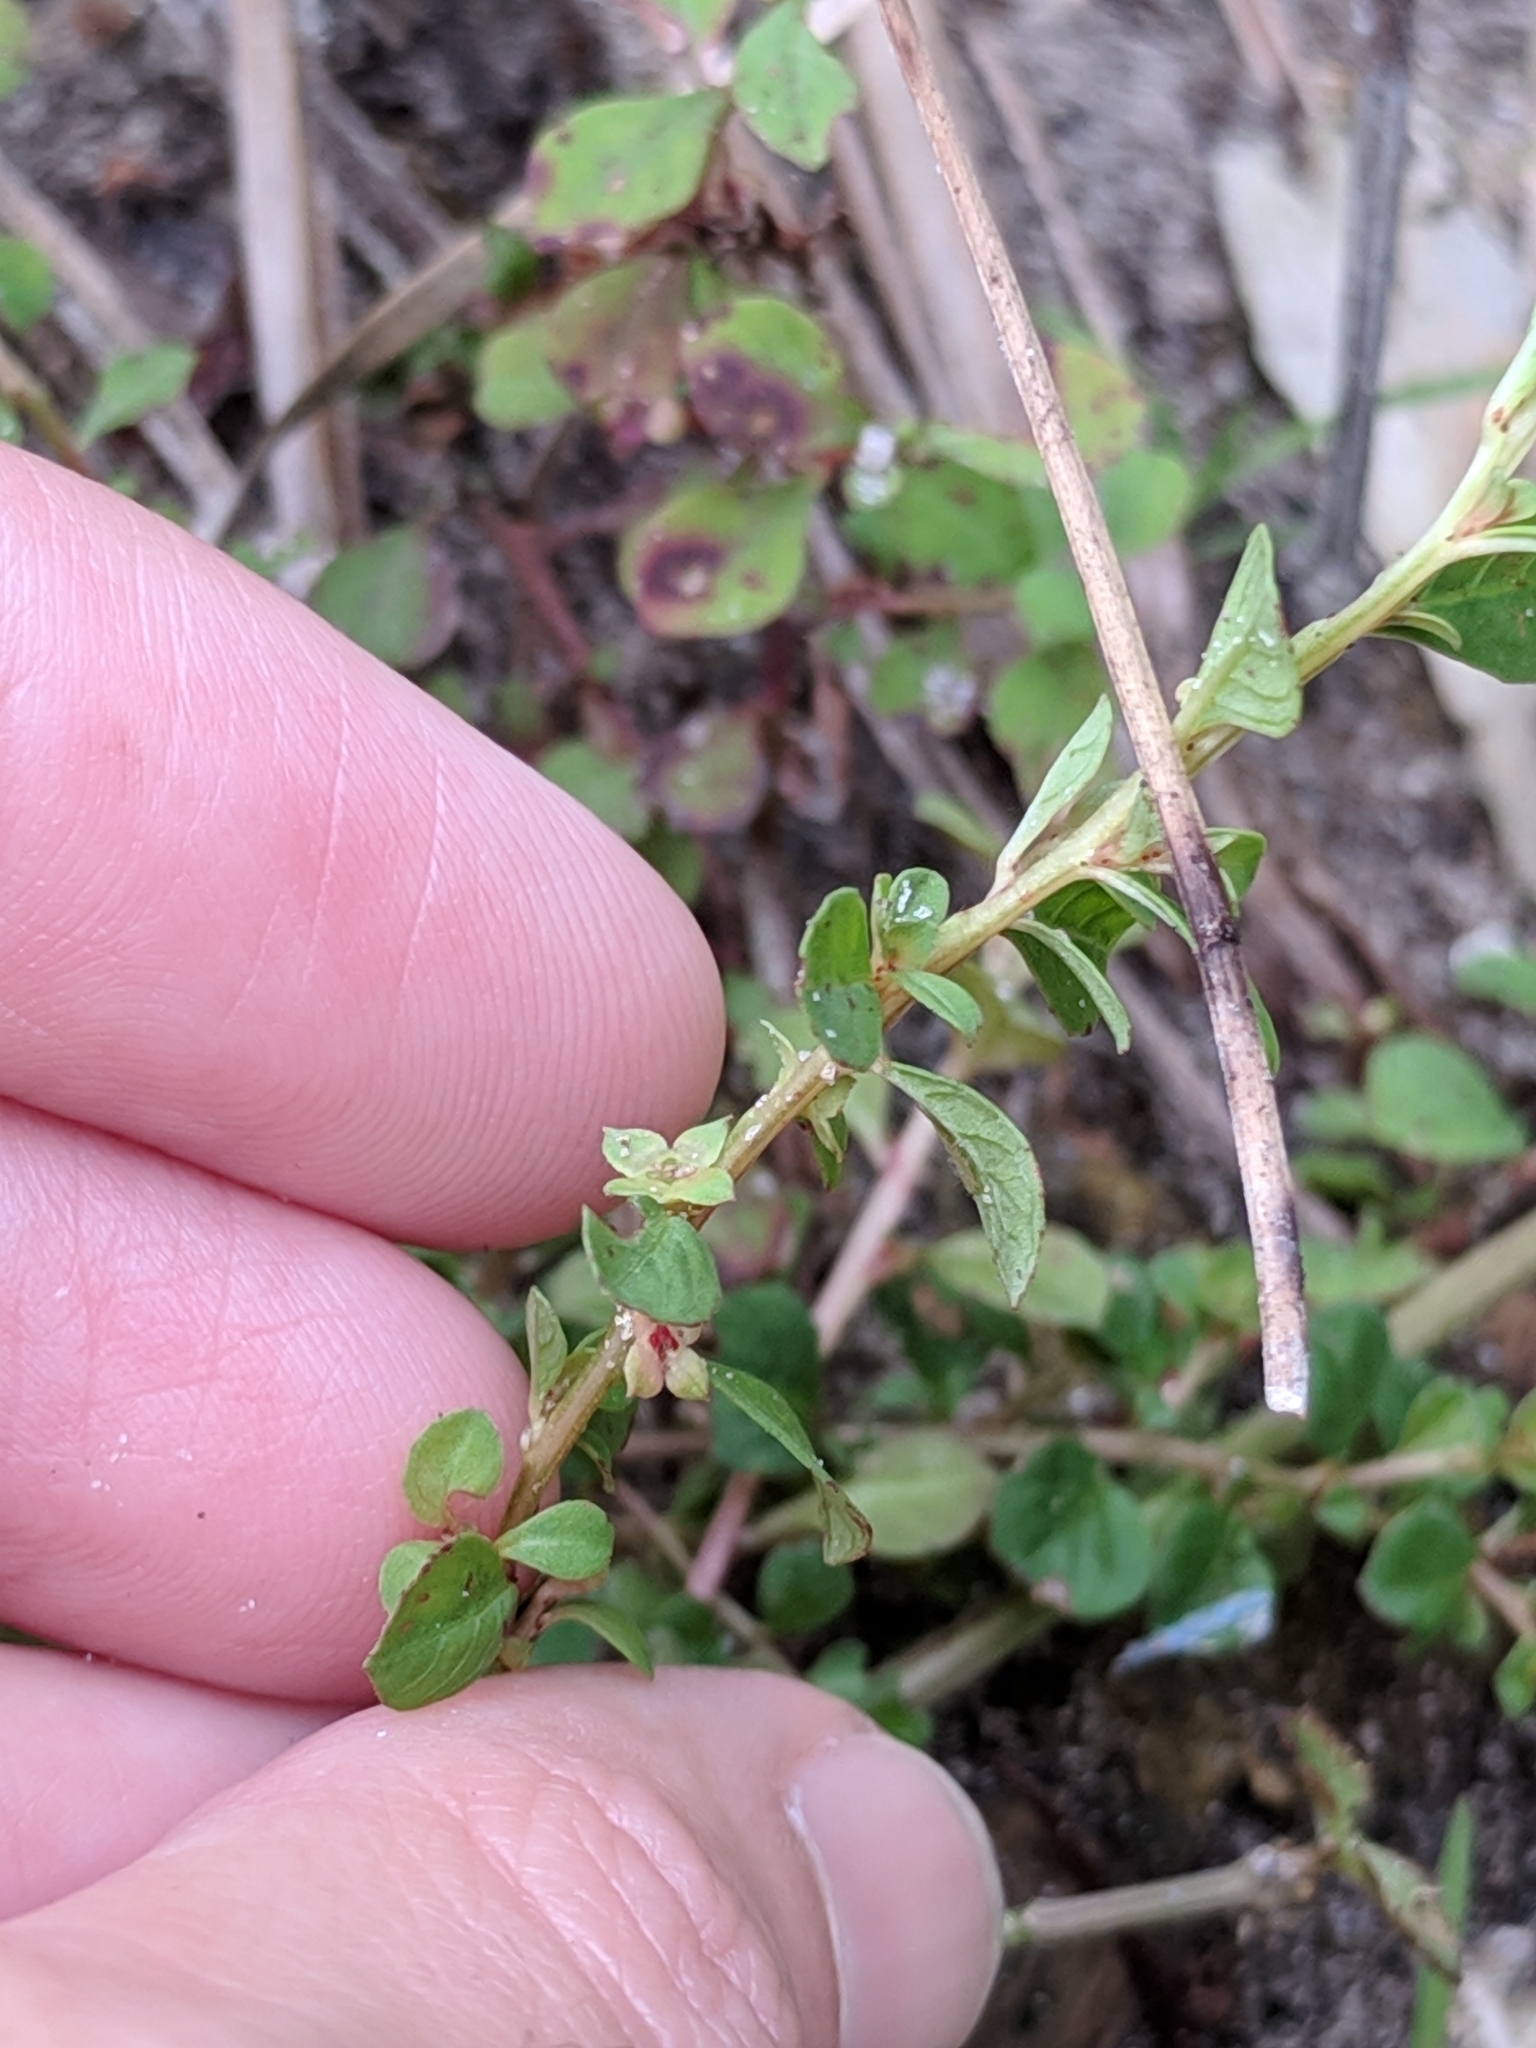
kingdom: Plantae
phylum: Tracheophyta
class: Magnoliopsida
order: Myrtales
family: Onagraceae
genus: Ludwigia
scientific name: Ludwigia microcarpa
